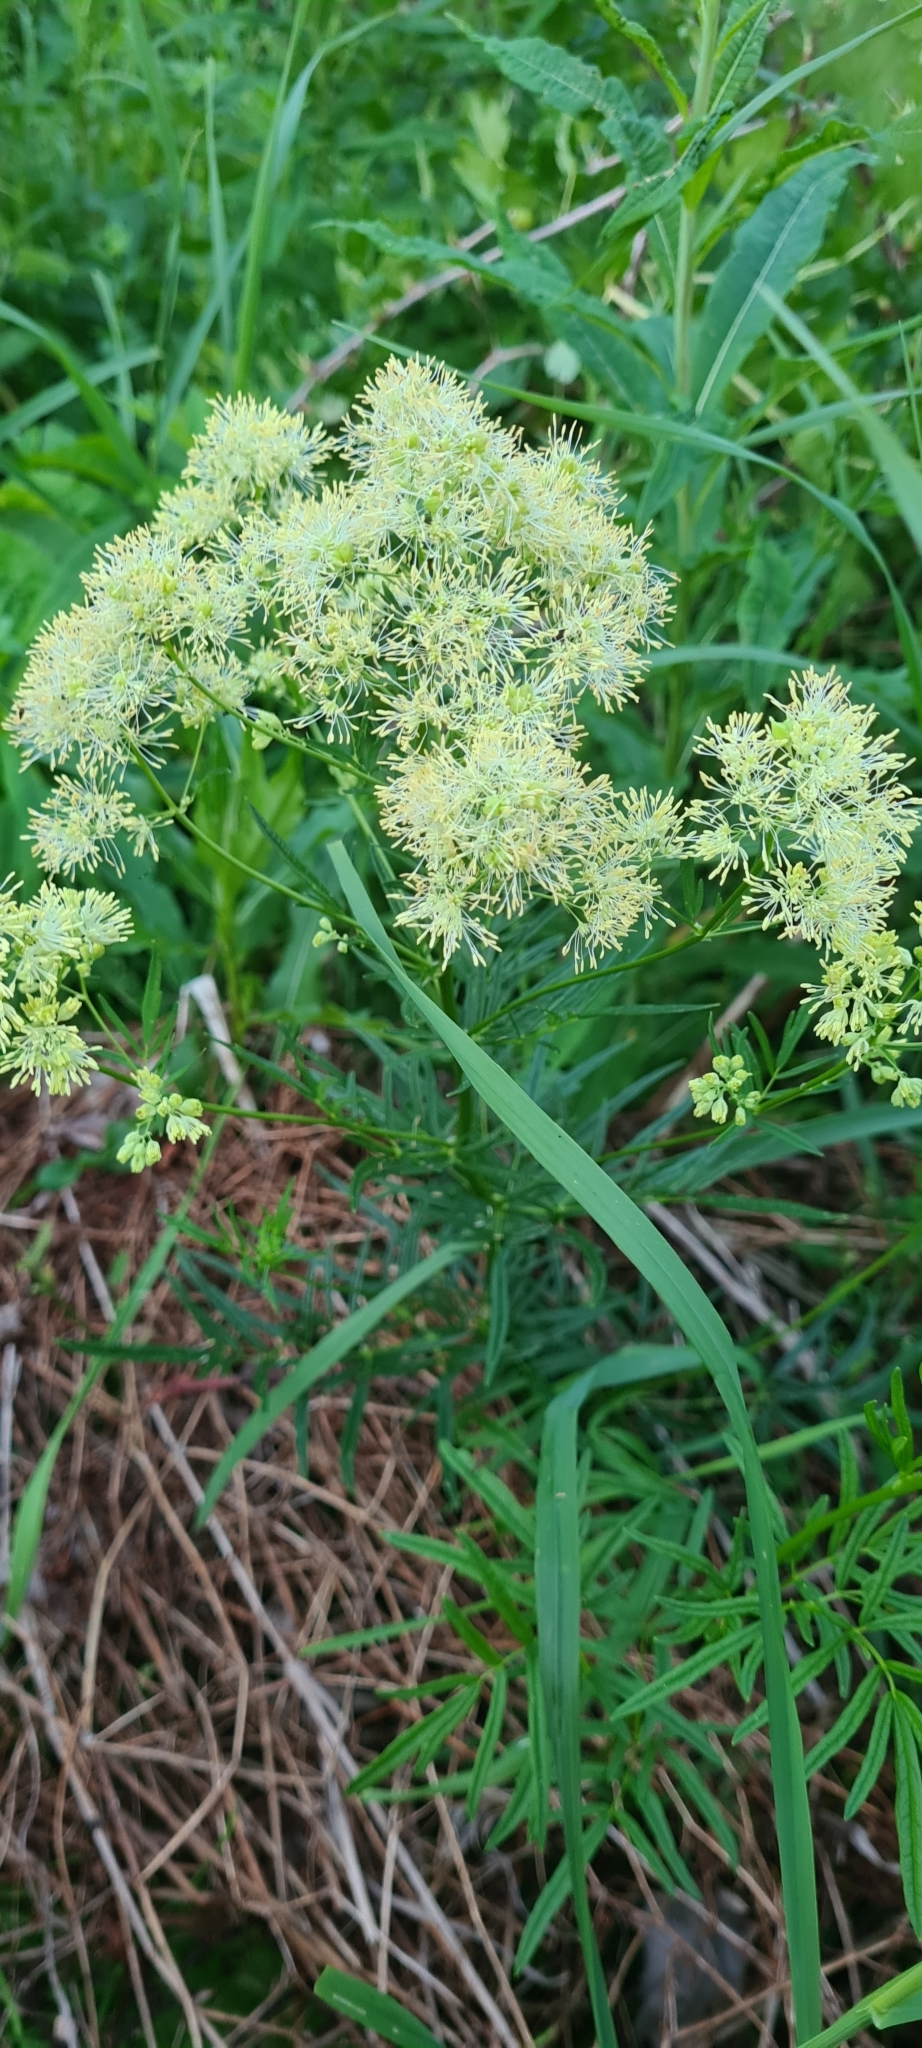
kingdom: Plantae
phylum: Tracheophyta
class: Magnoliopsida
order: Ranunculales
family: Ranunculaceae
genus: Thalictrum
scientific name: Thalictrum lucidum
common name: Shining meadow-rue
